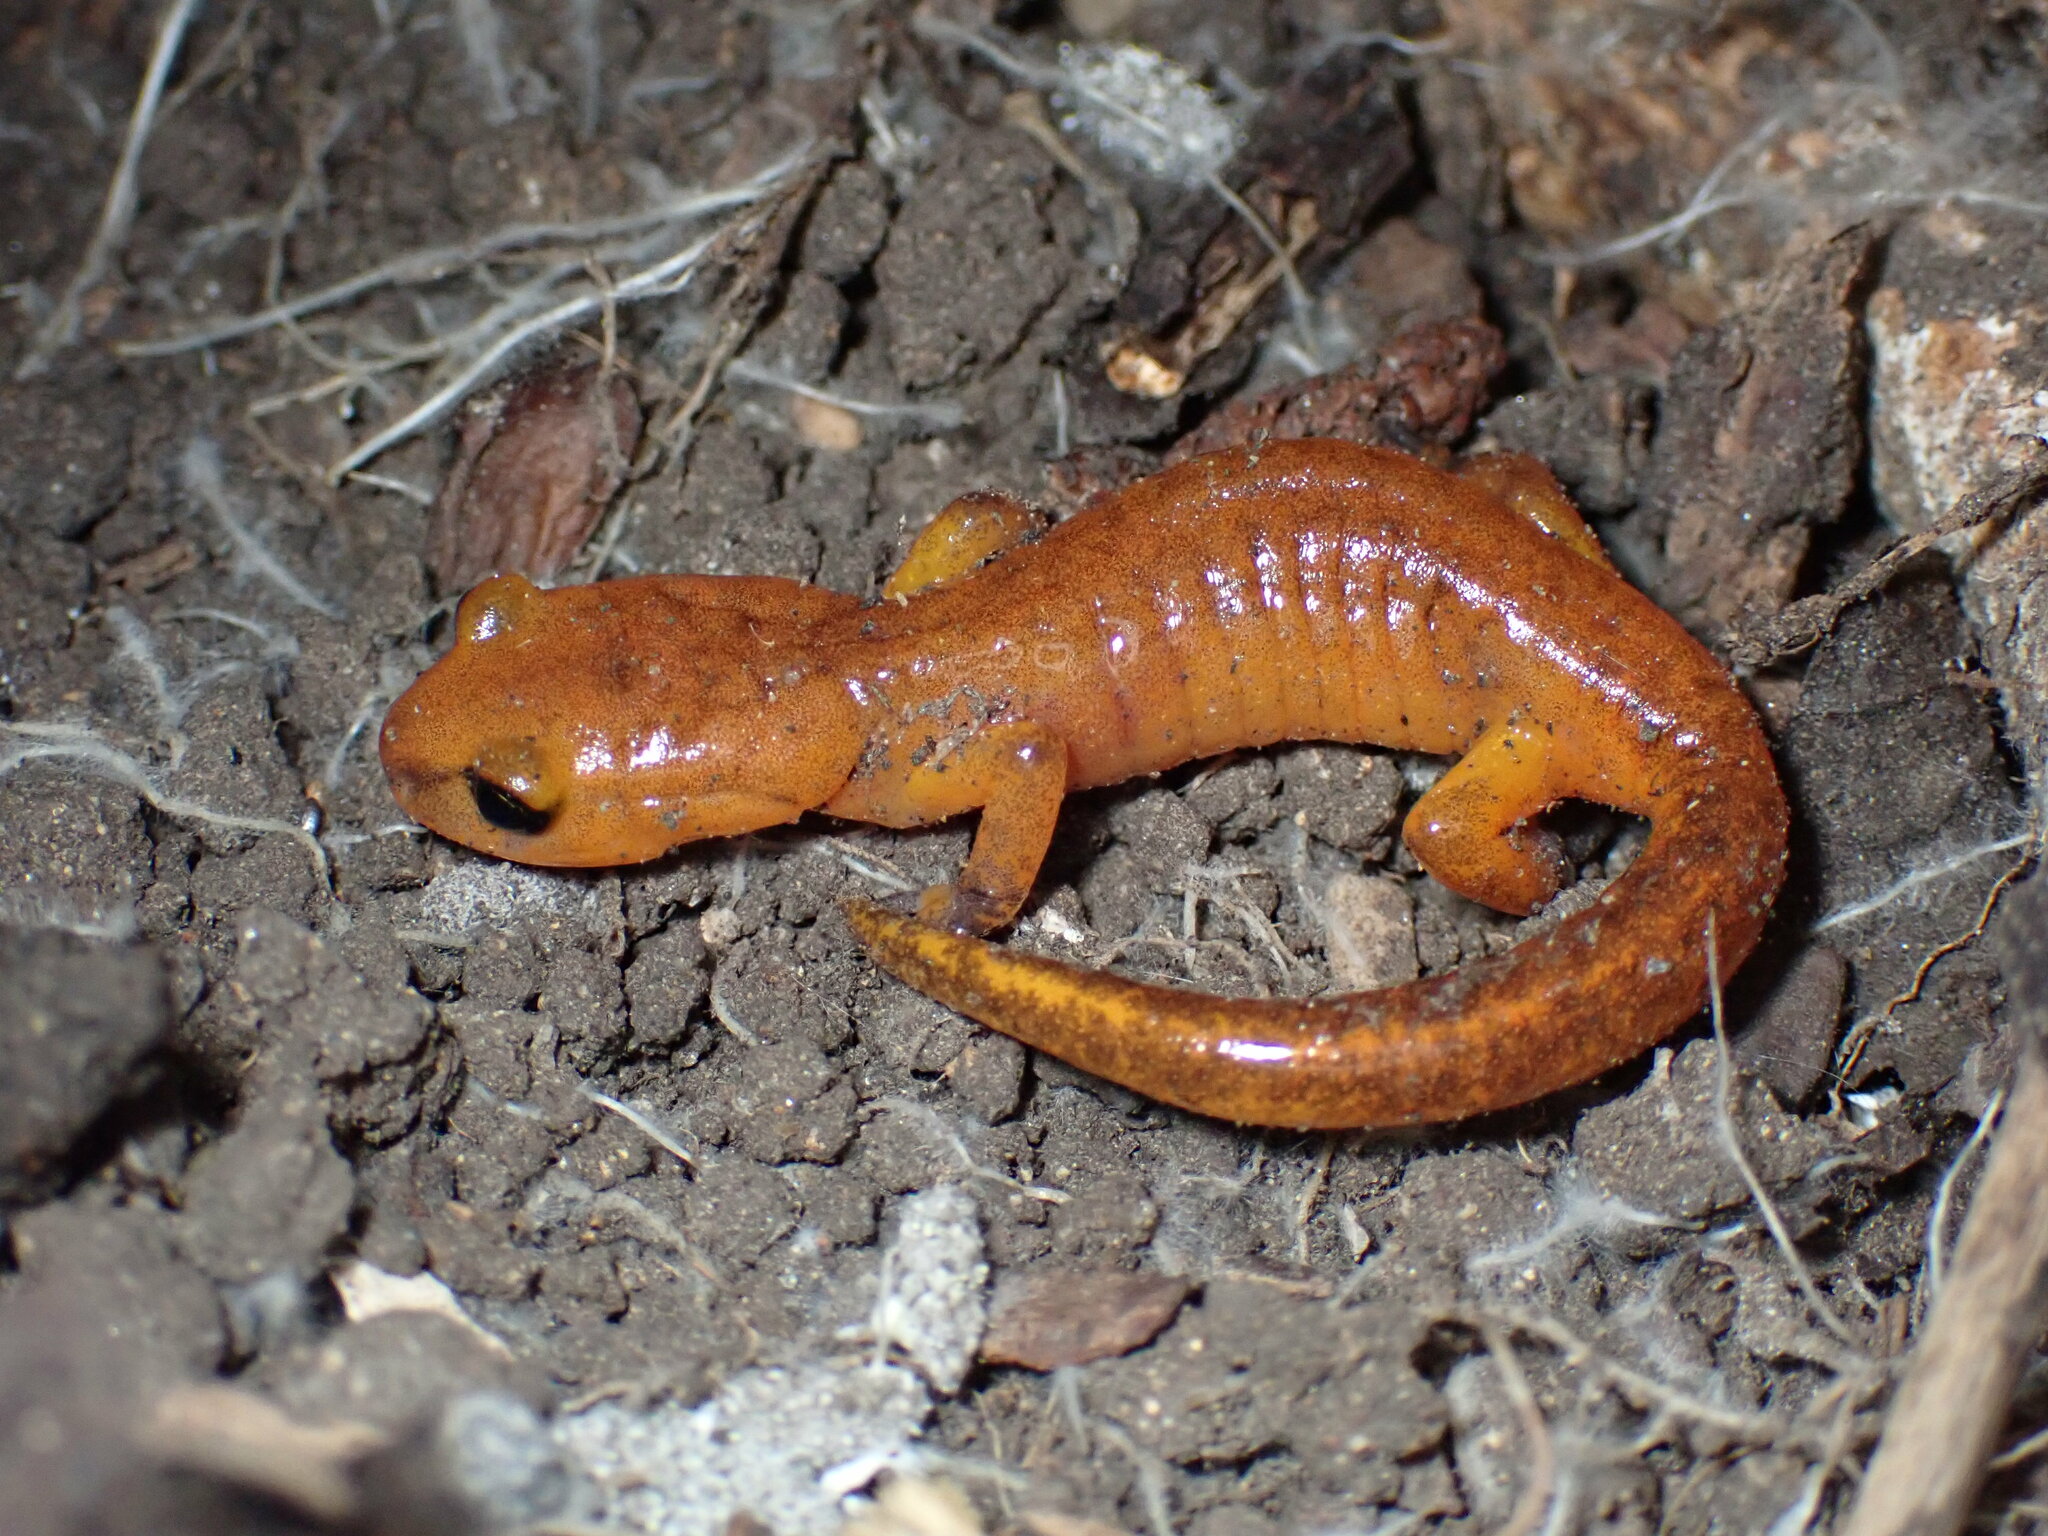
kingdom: Animalia
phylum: Chordata
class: Amphibia
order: Caudata
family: Plethodontidae
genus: Ensatina
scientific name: Ensatina eschscholtzii
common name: Ensatina
